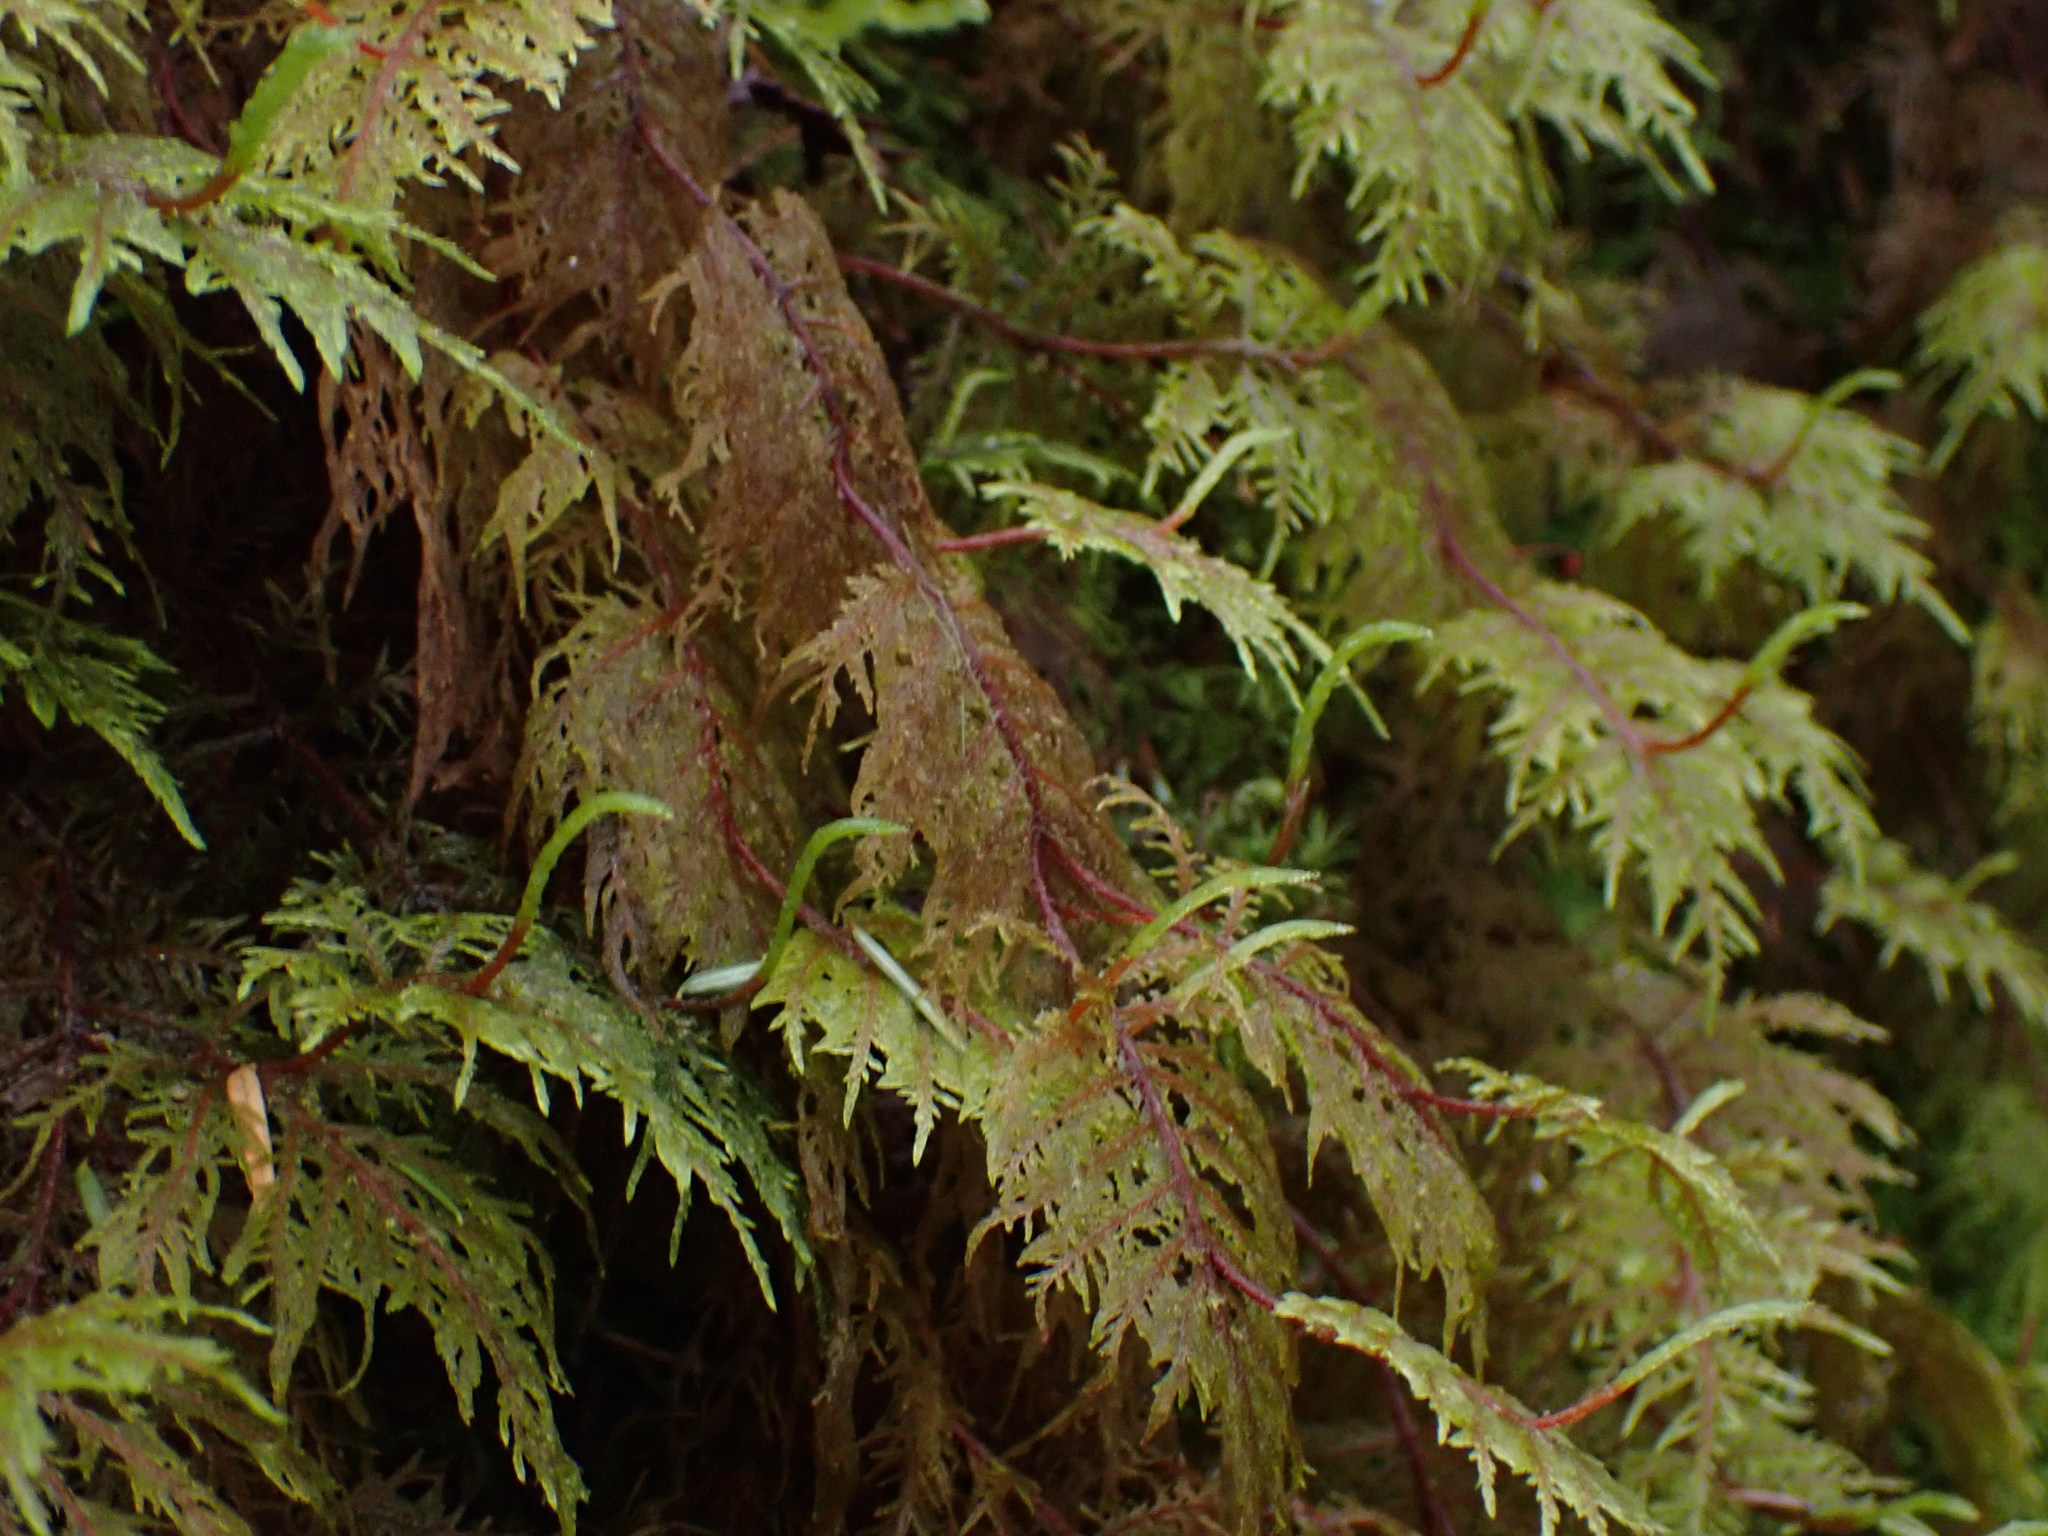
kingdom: Plantae
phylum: Bryophyta
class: Bryopsida
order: Hypnales
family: Hylocomiaceae
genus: Hylocomium
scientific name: Hylocomium splendens
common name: Stairstep moss
